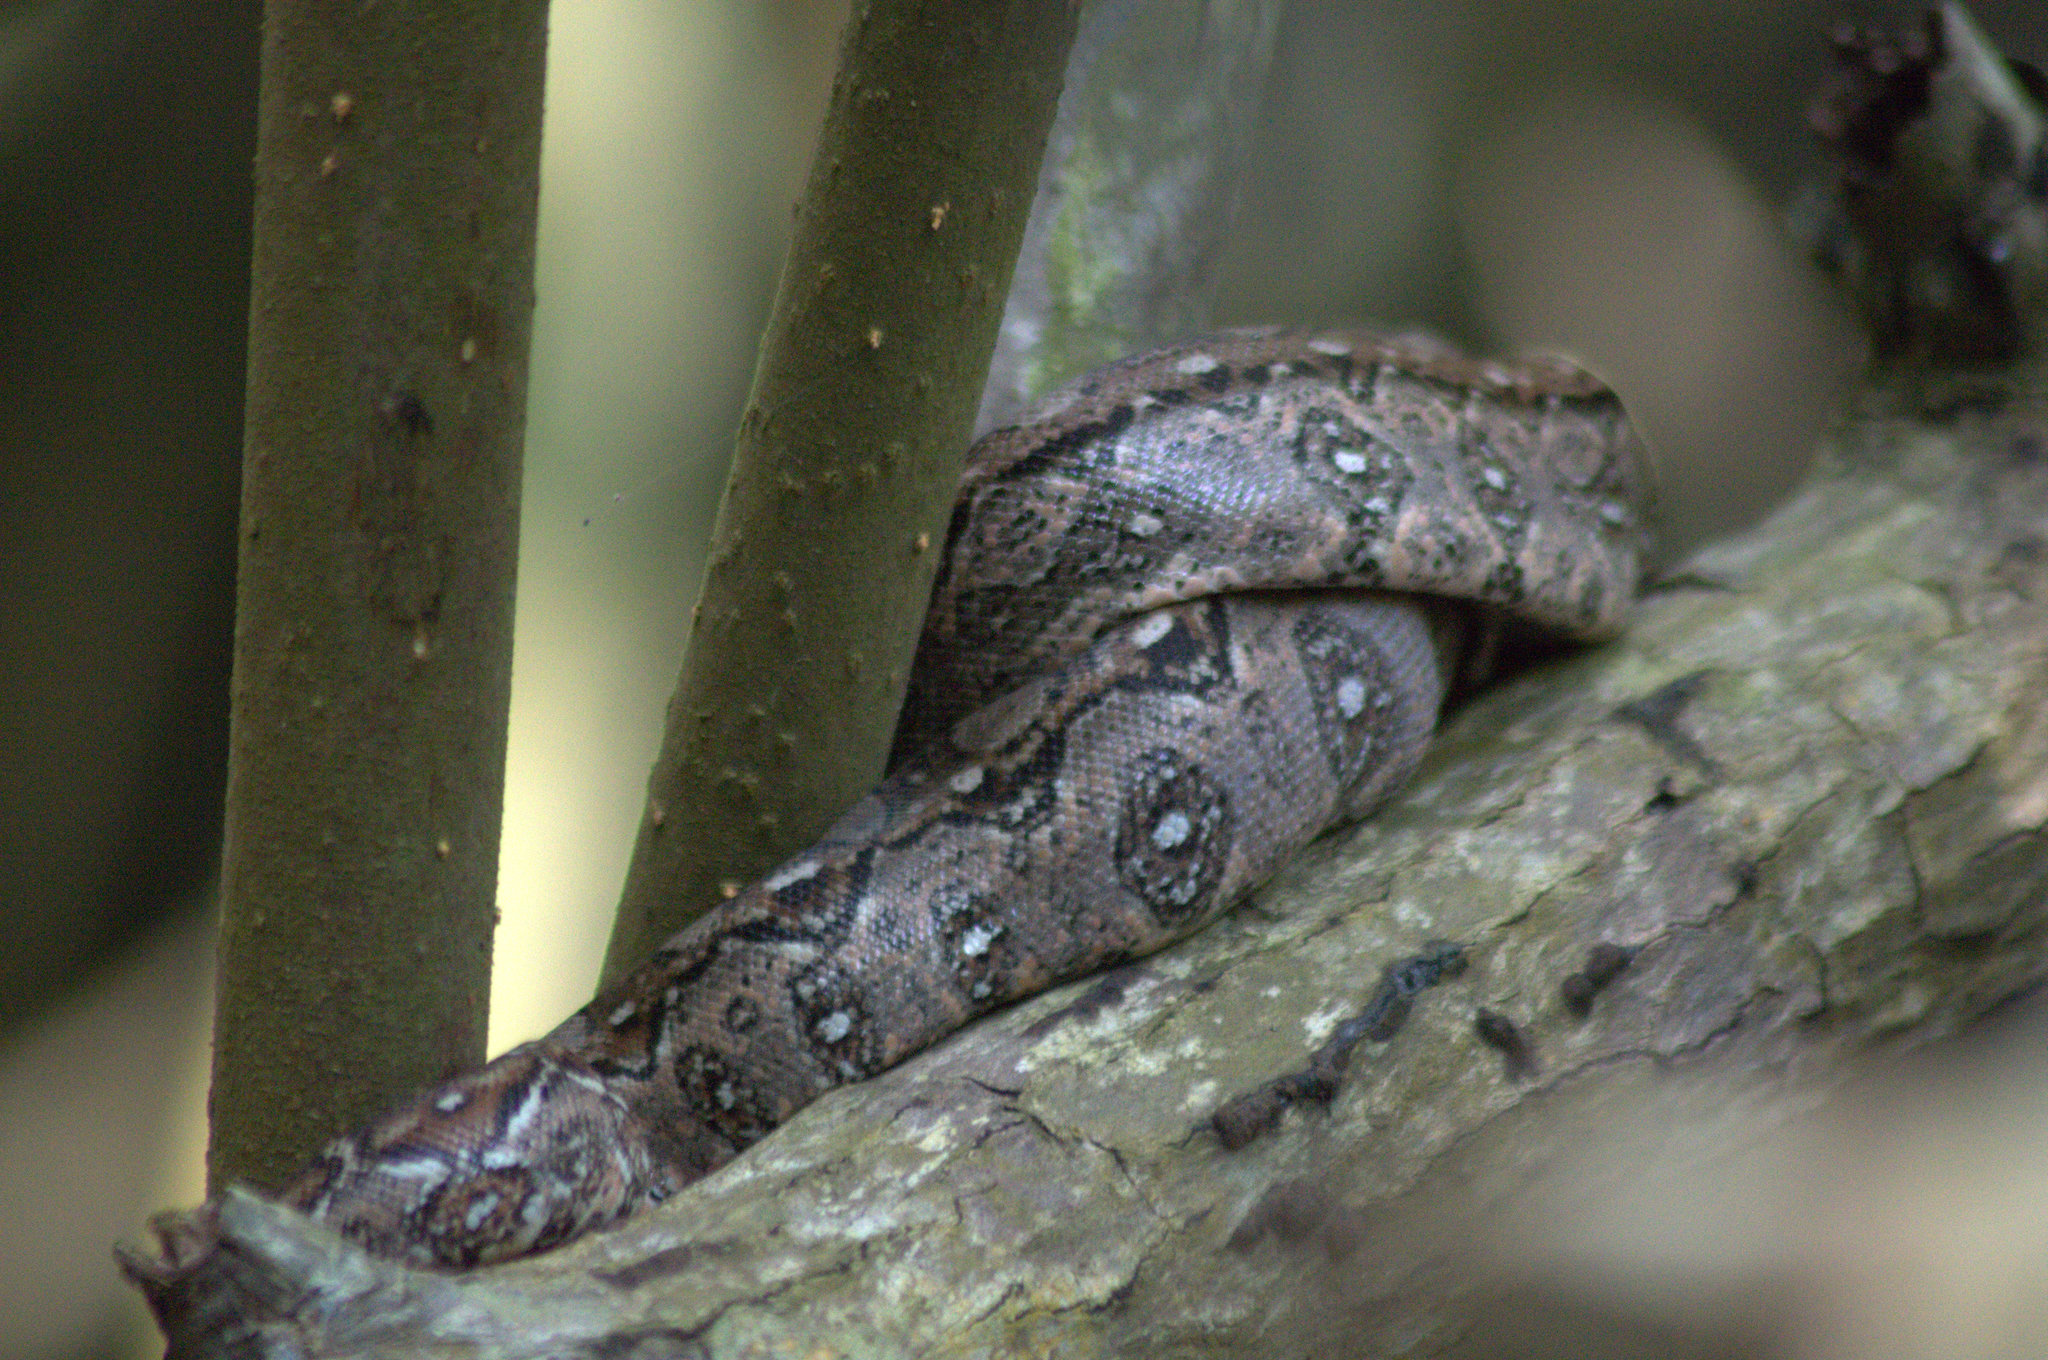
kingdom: Animalia
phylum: Chordata
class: Squamata
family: Boidae
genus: Boa
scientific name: Boa
